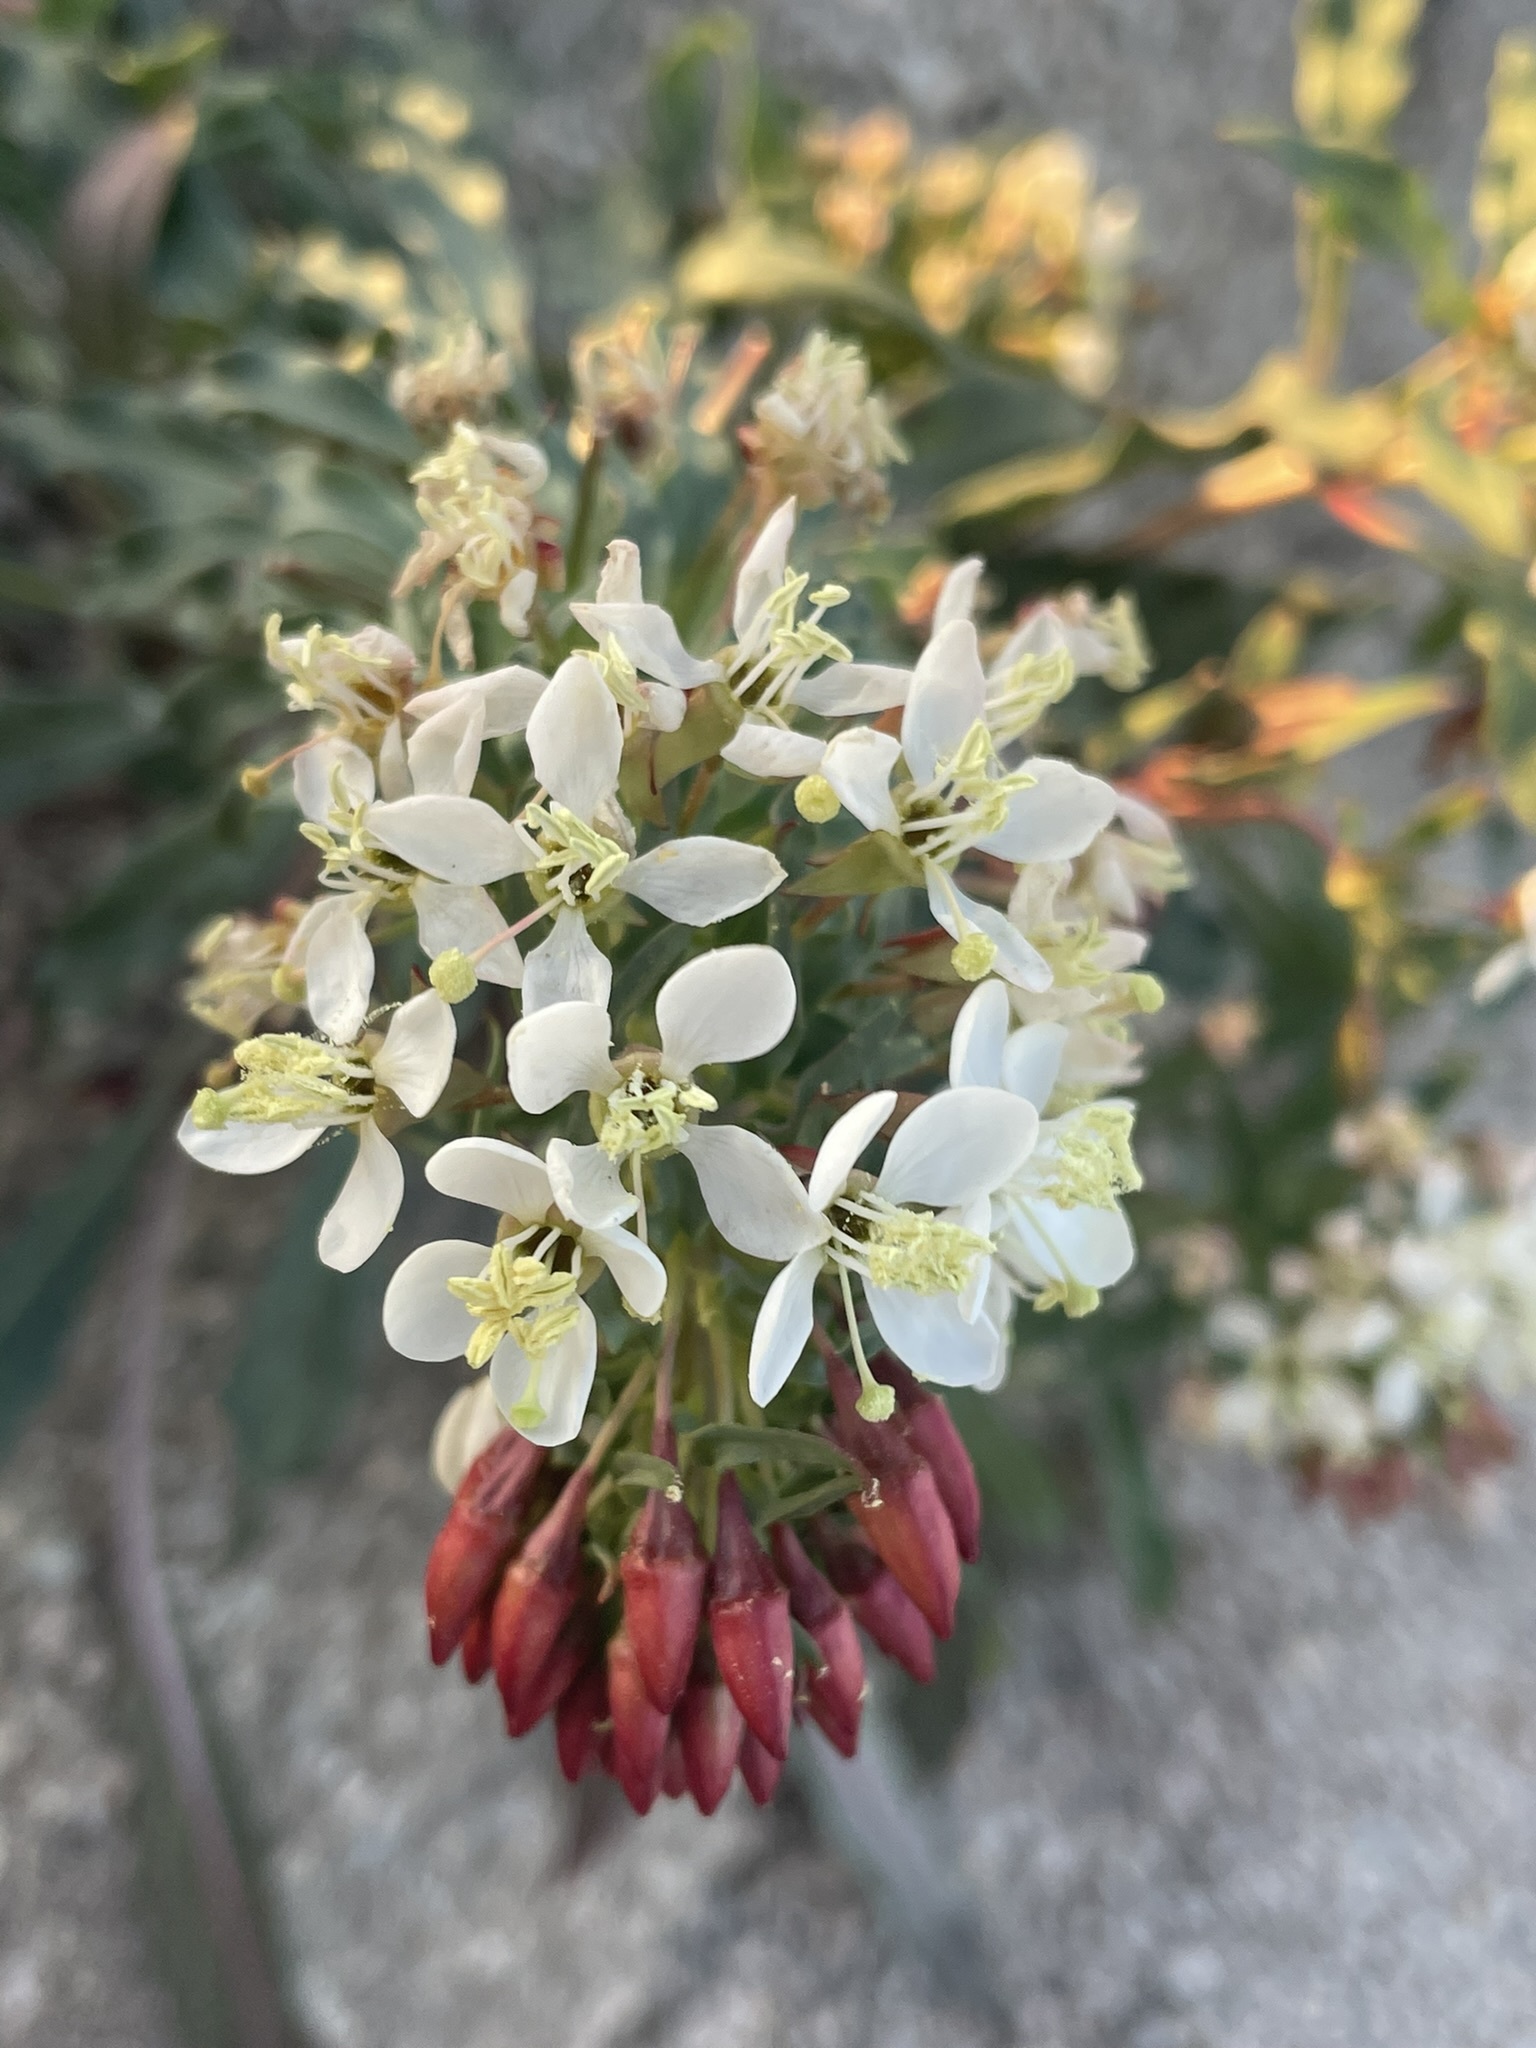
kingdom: Plantae
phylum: Tracheophyta
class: Magnoliopsida
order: Myrtales
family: Onagraceae
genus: Eremothera
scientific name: Eremothera boothii
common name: Booth's evening primrose
